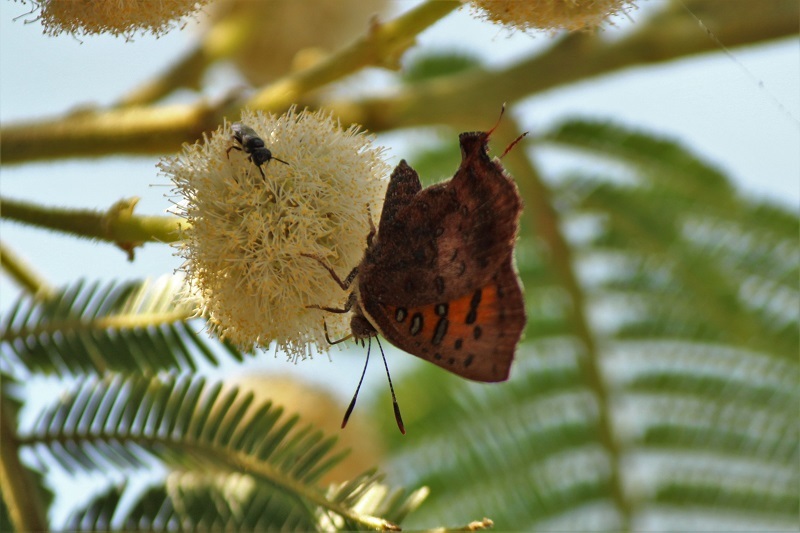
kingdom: Animalia
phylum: Arthropoda
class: Insecta
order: Lepidoptera
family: Lycaenidae
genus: Axiocerses
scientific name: Axiocerses perion
